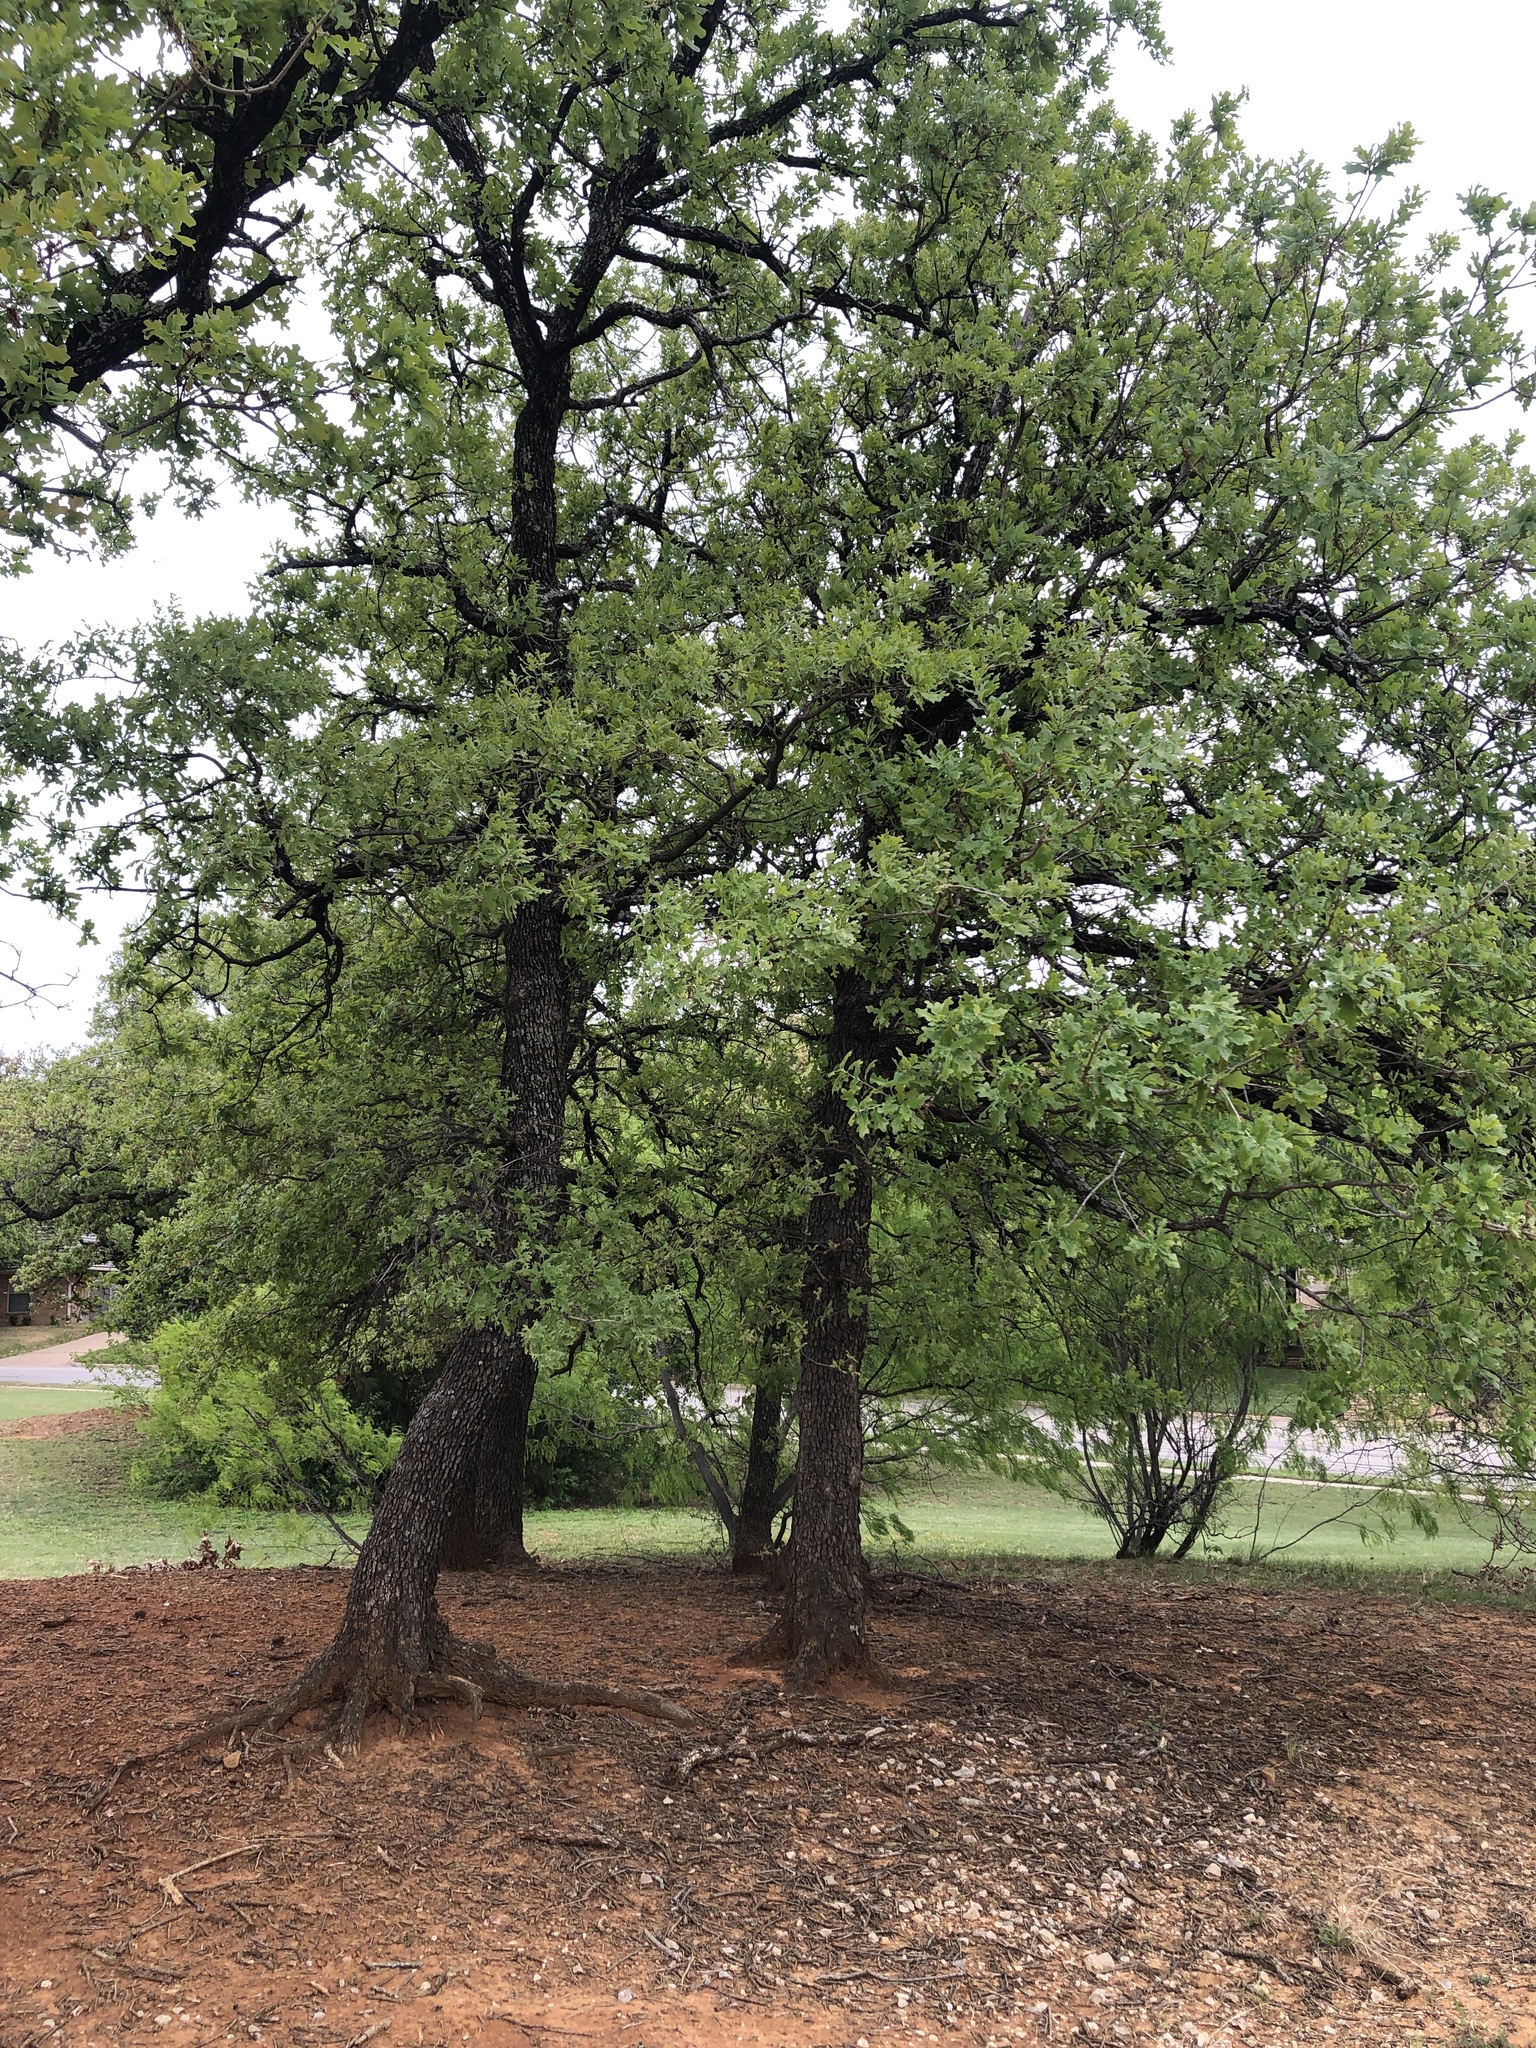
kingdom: Plantae
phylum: Tracheophyta
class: Magnoliopsida
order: Fagales
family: Fagaceae
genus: Quercus
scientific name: Quercus stellata
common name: Post oak
